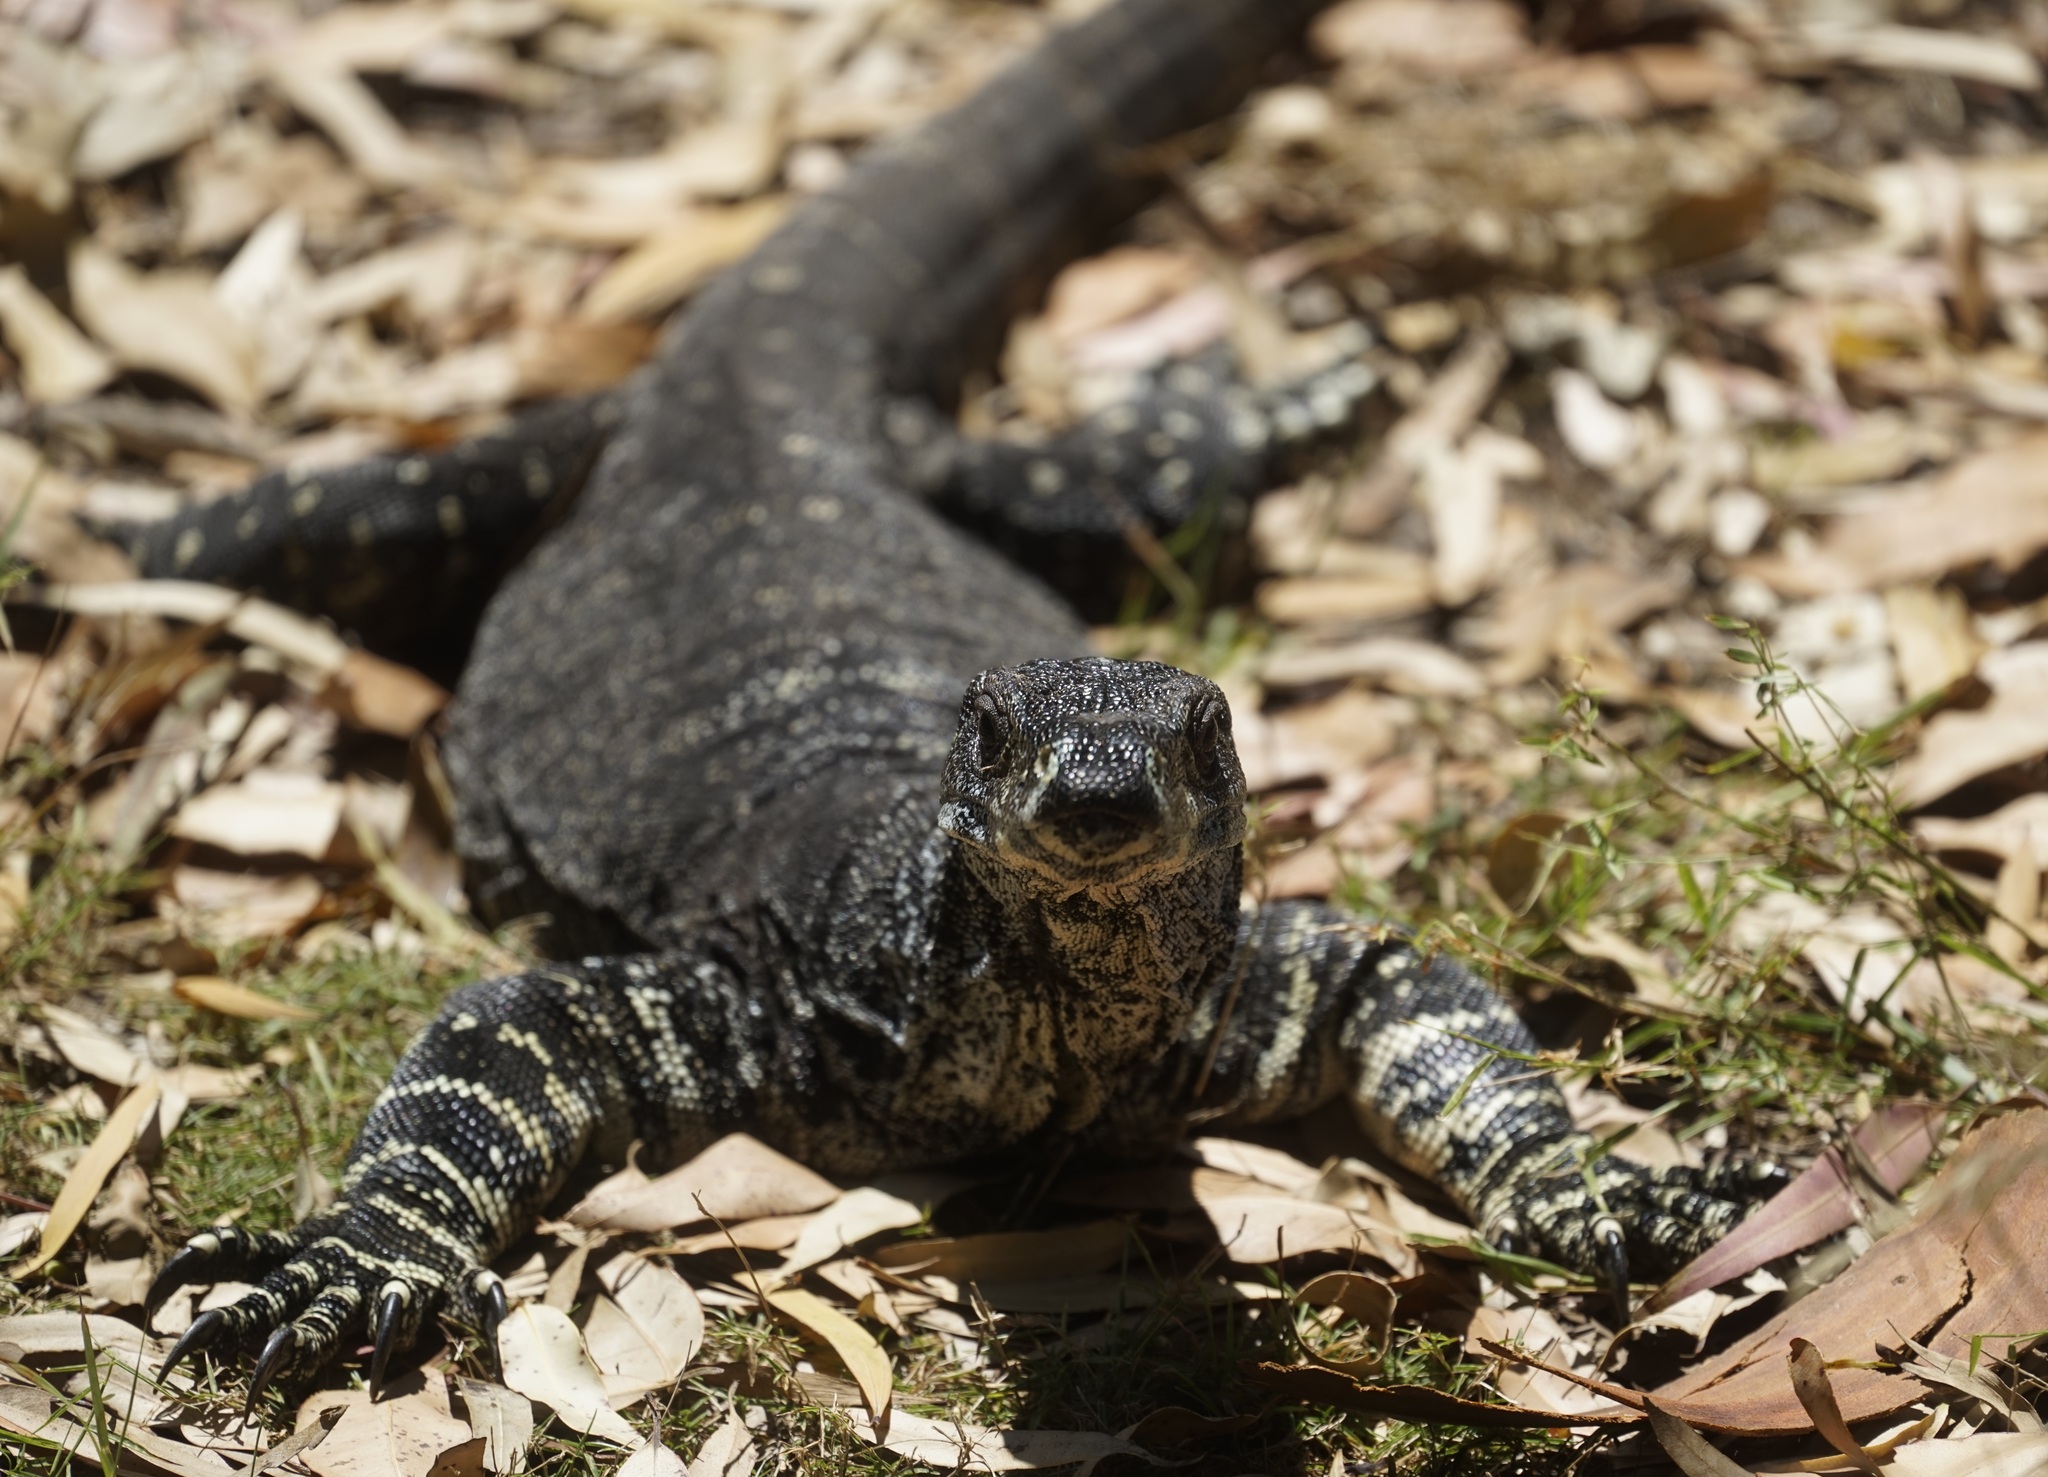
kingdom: Animalia
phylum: Chordata
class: Squamata
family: Varanidae
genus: Varanus
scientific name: Varanus varius
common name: Lace monitor
